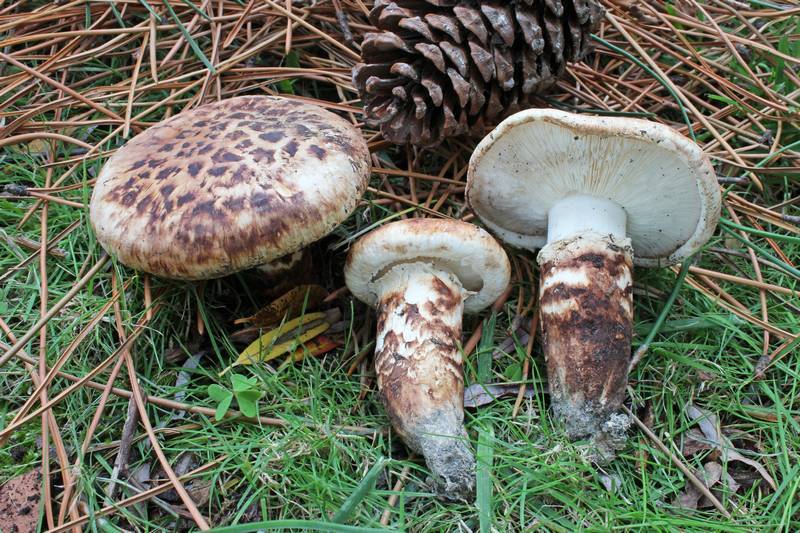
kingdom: Fungi
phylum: Basidiomycota
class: Agaricomycetes
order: Agaricales
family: Tricholomataceae
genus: Tricholoma
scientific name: Tricholoma caligatum
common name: True booted knight
